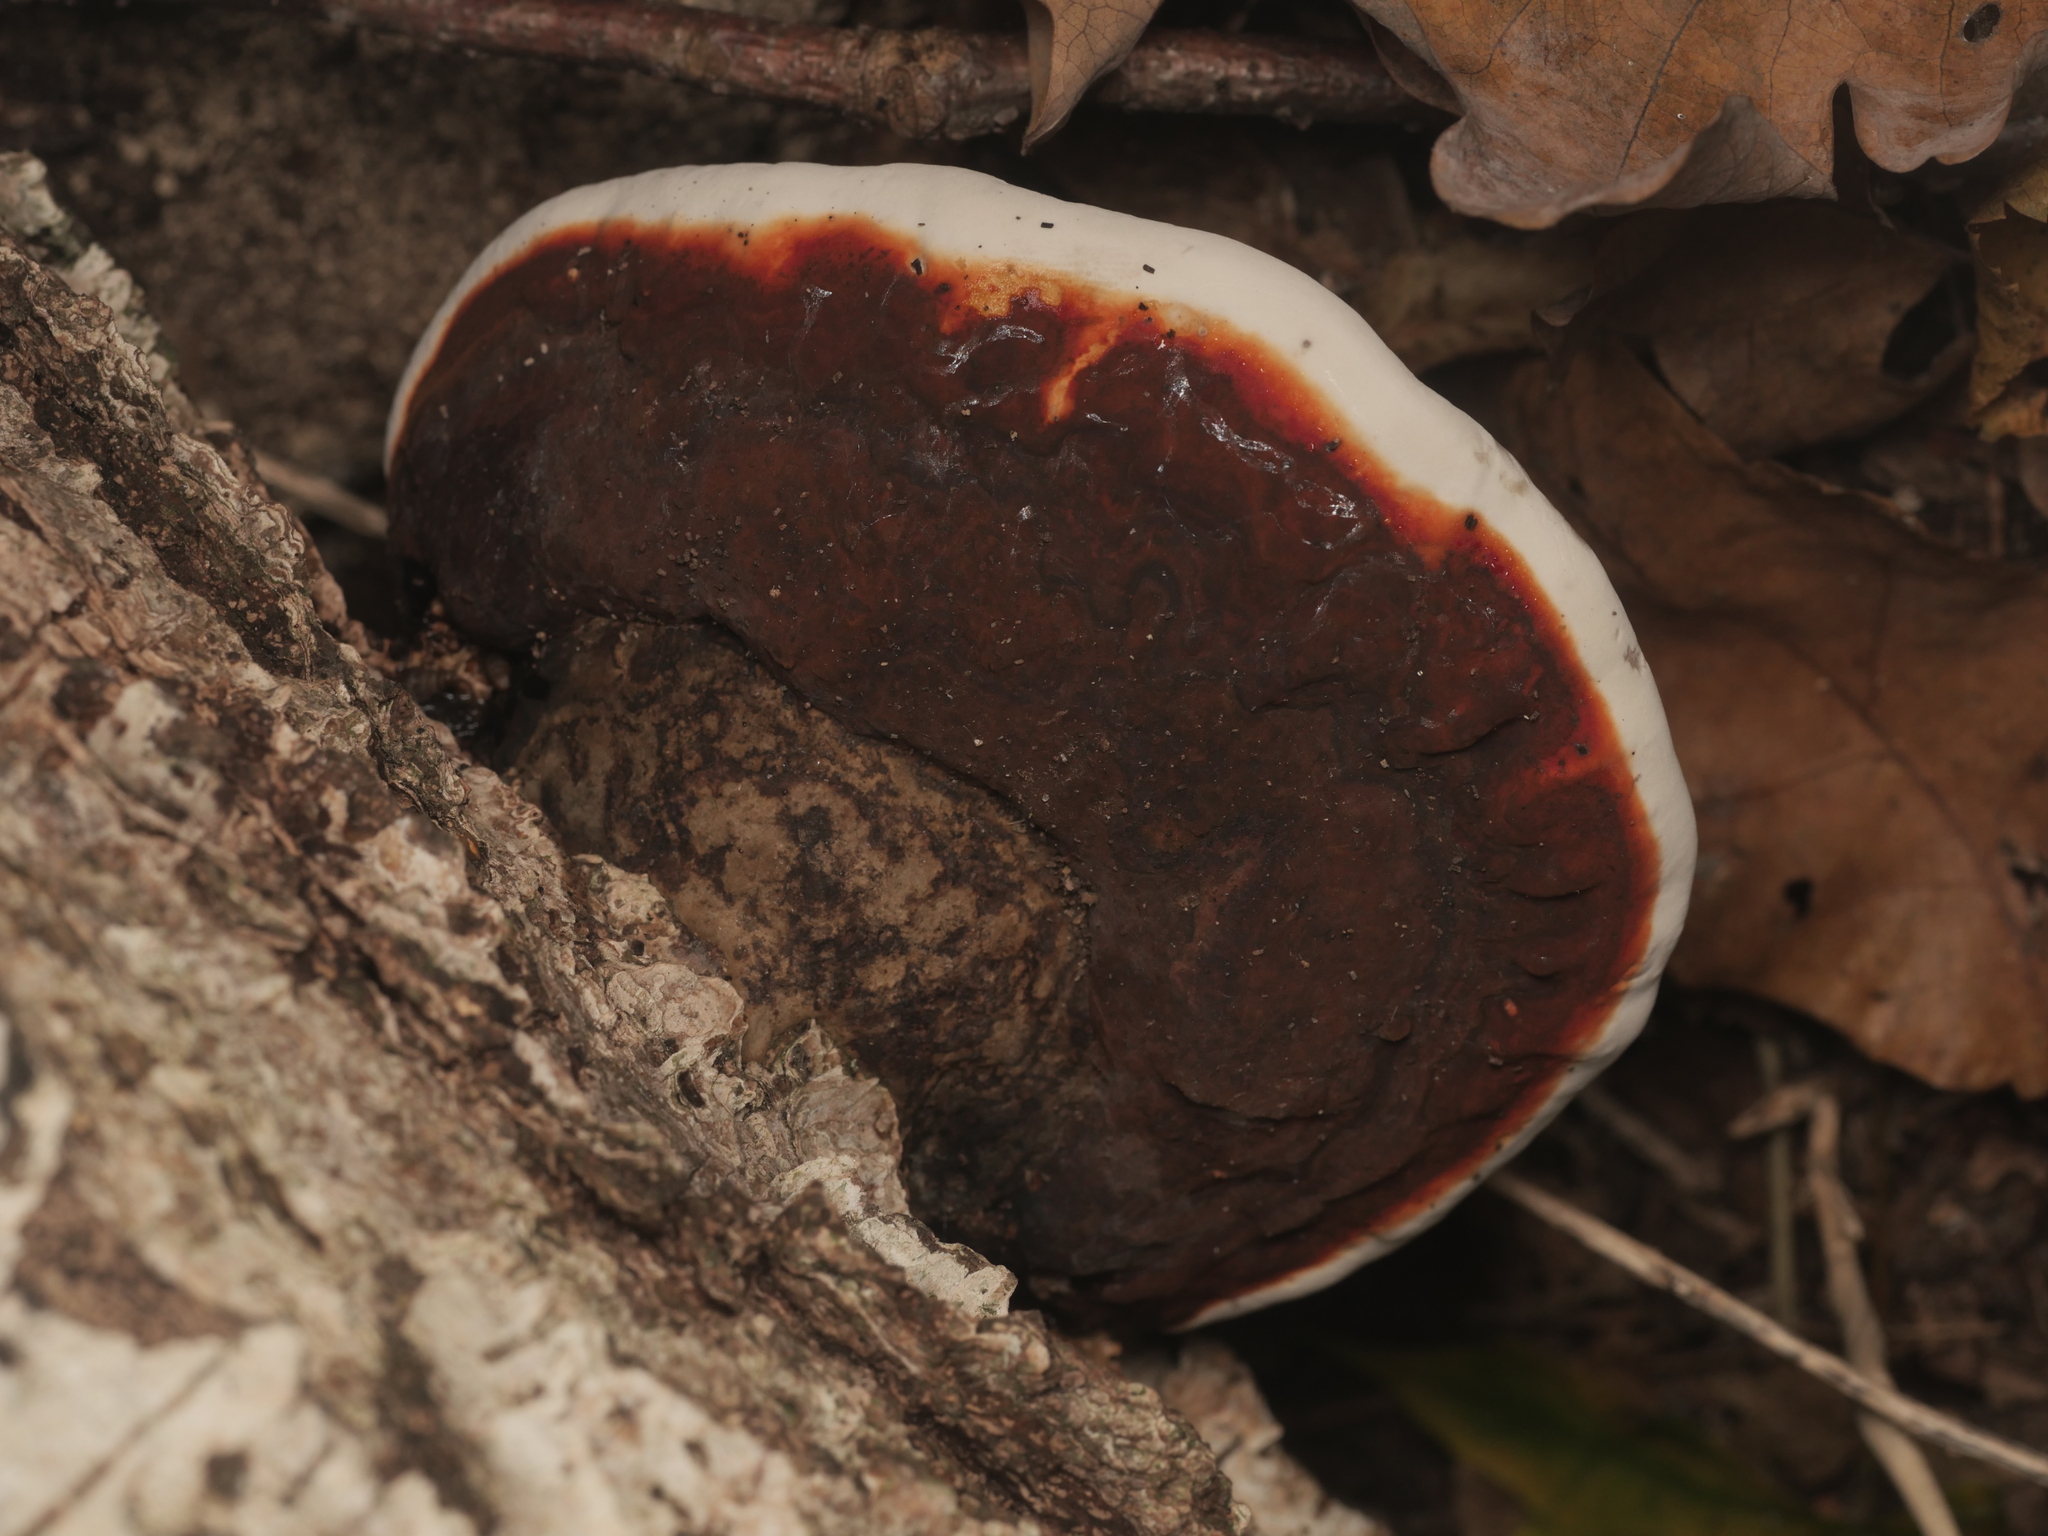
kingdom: Fungi
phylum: Basidiomycota
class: Agaricomycetes
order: Polyporales
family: Fomitopsidaceae
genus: Fomitopsis
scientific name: Fomitopsis pinicola
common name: Red-belted bracket
